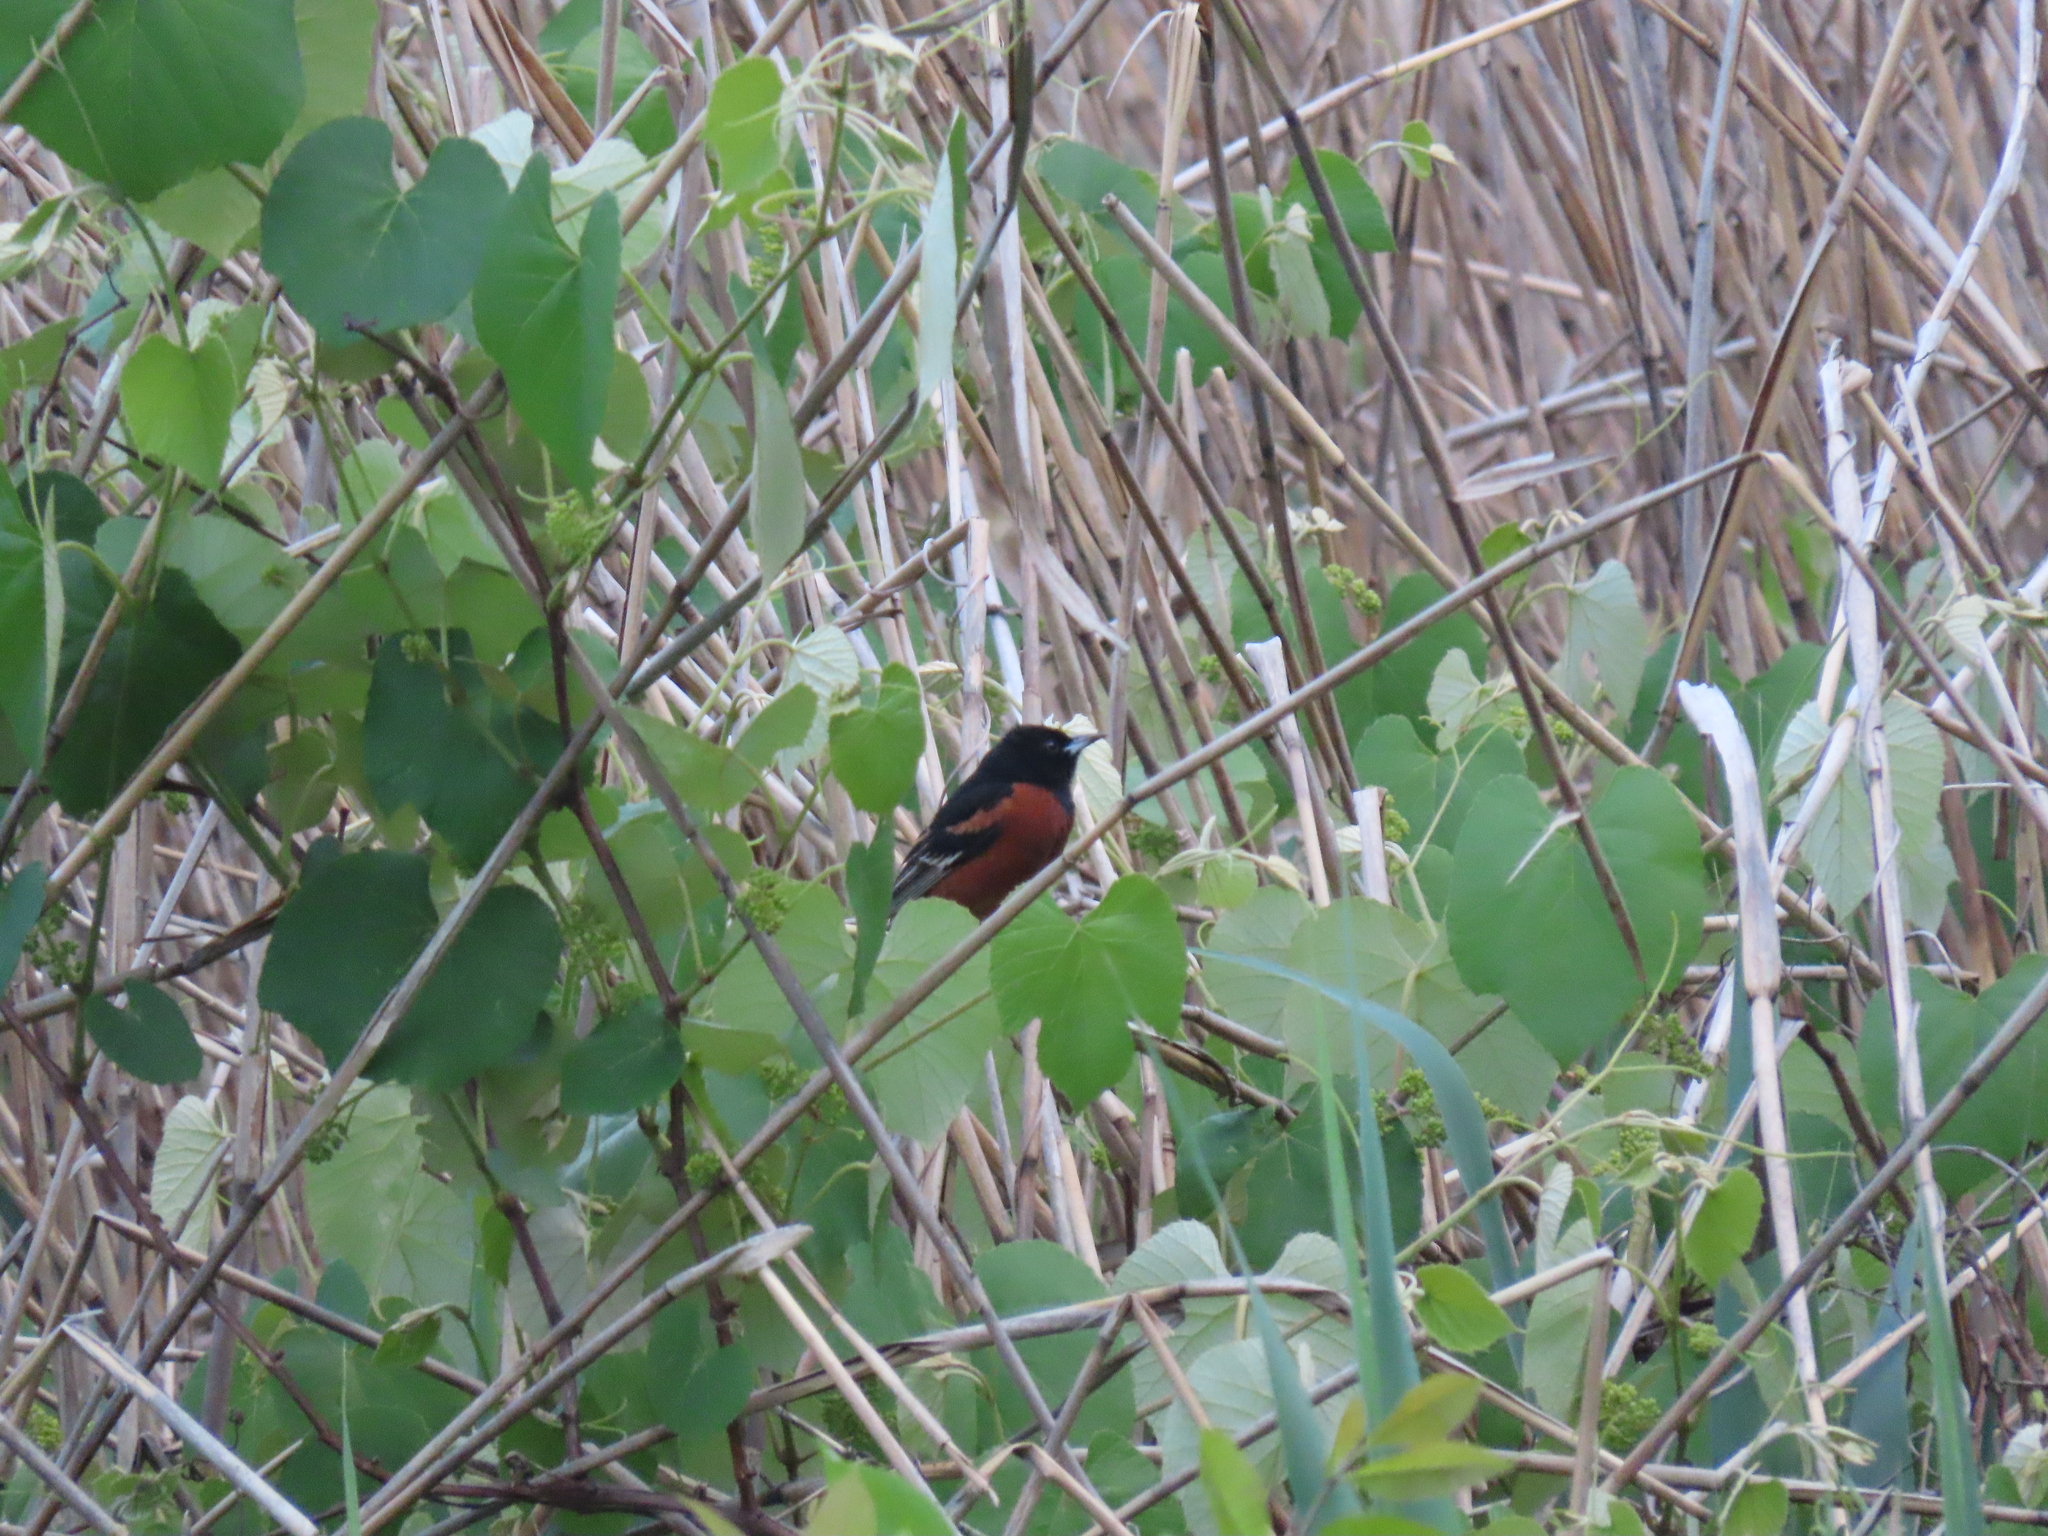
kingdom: Animalia
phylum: Chordata
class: Aves
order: Passeriformes
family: Icteridae
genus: Icterus
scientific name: Icterus spurius
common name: Orchard oriole
